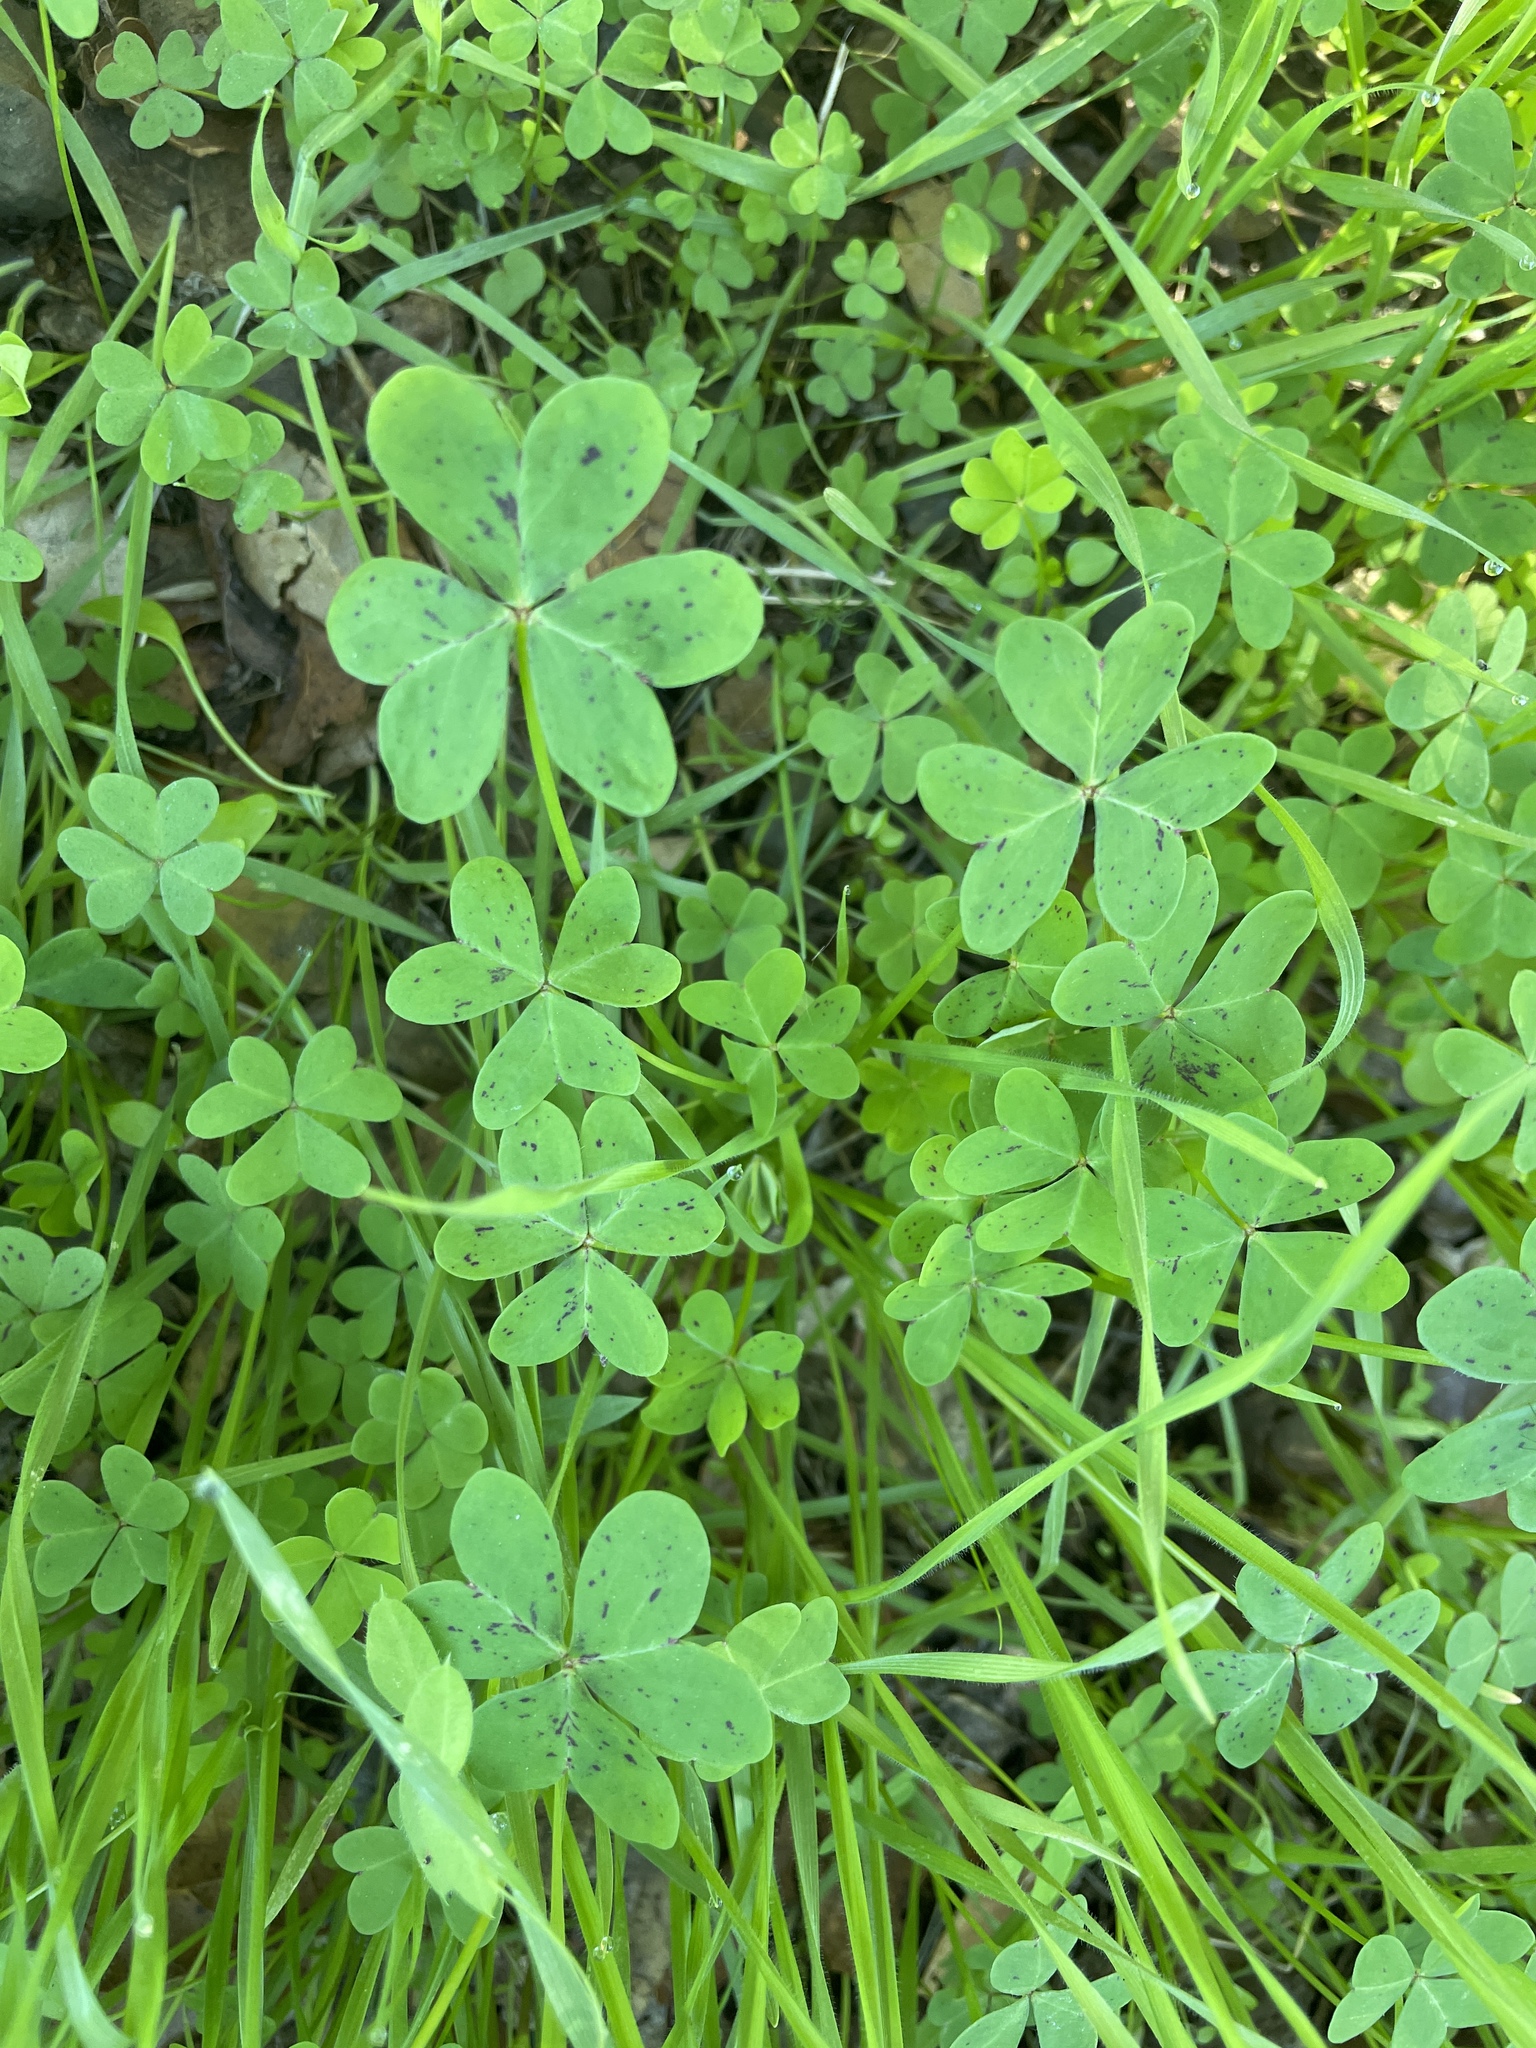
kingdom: Plantae
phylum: Tracheophyta
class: Magnoliopsida
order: Oxalidales
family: Oxalidaceae
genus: Oxalis
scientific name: Oxalis pes-caprae
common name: Bermuda-buttercup
